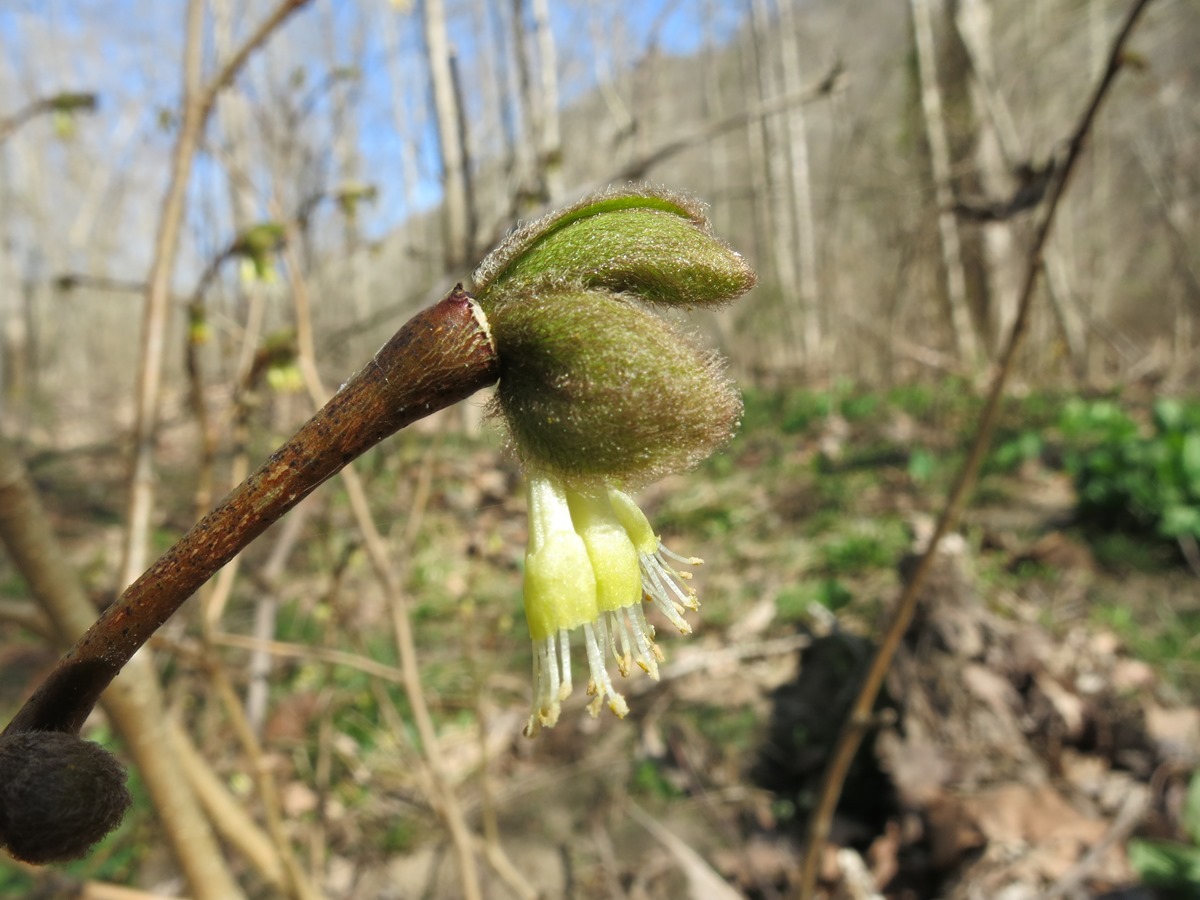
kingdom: Plantae
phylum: Tracheophyta
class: Magnoliopsida
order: Malvales
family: Thymelaeaceae
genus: Dirca
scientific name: Dirca palustris
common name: Leatherwood
